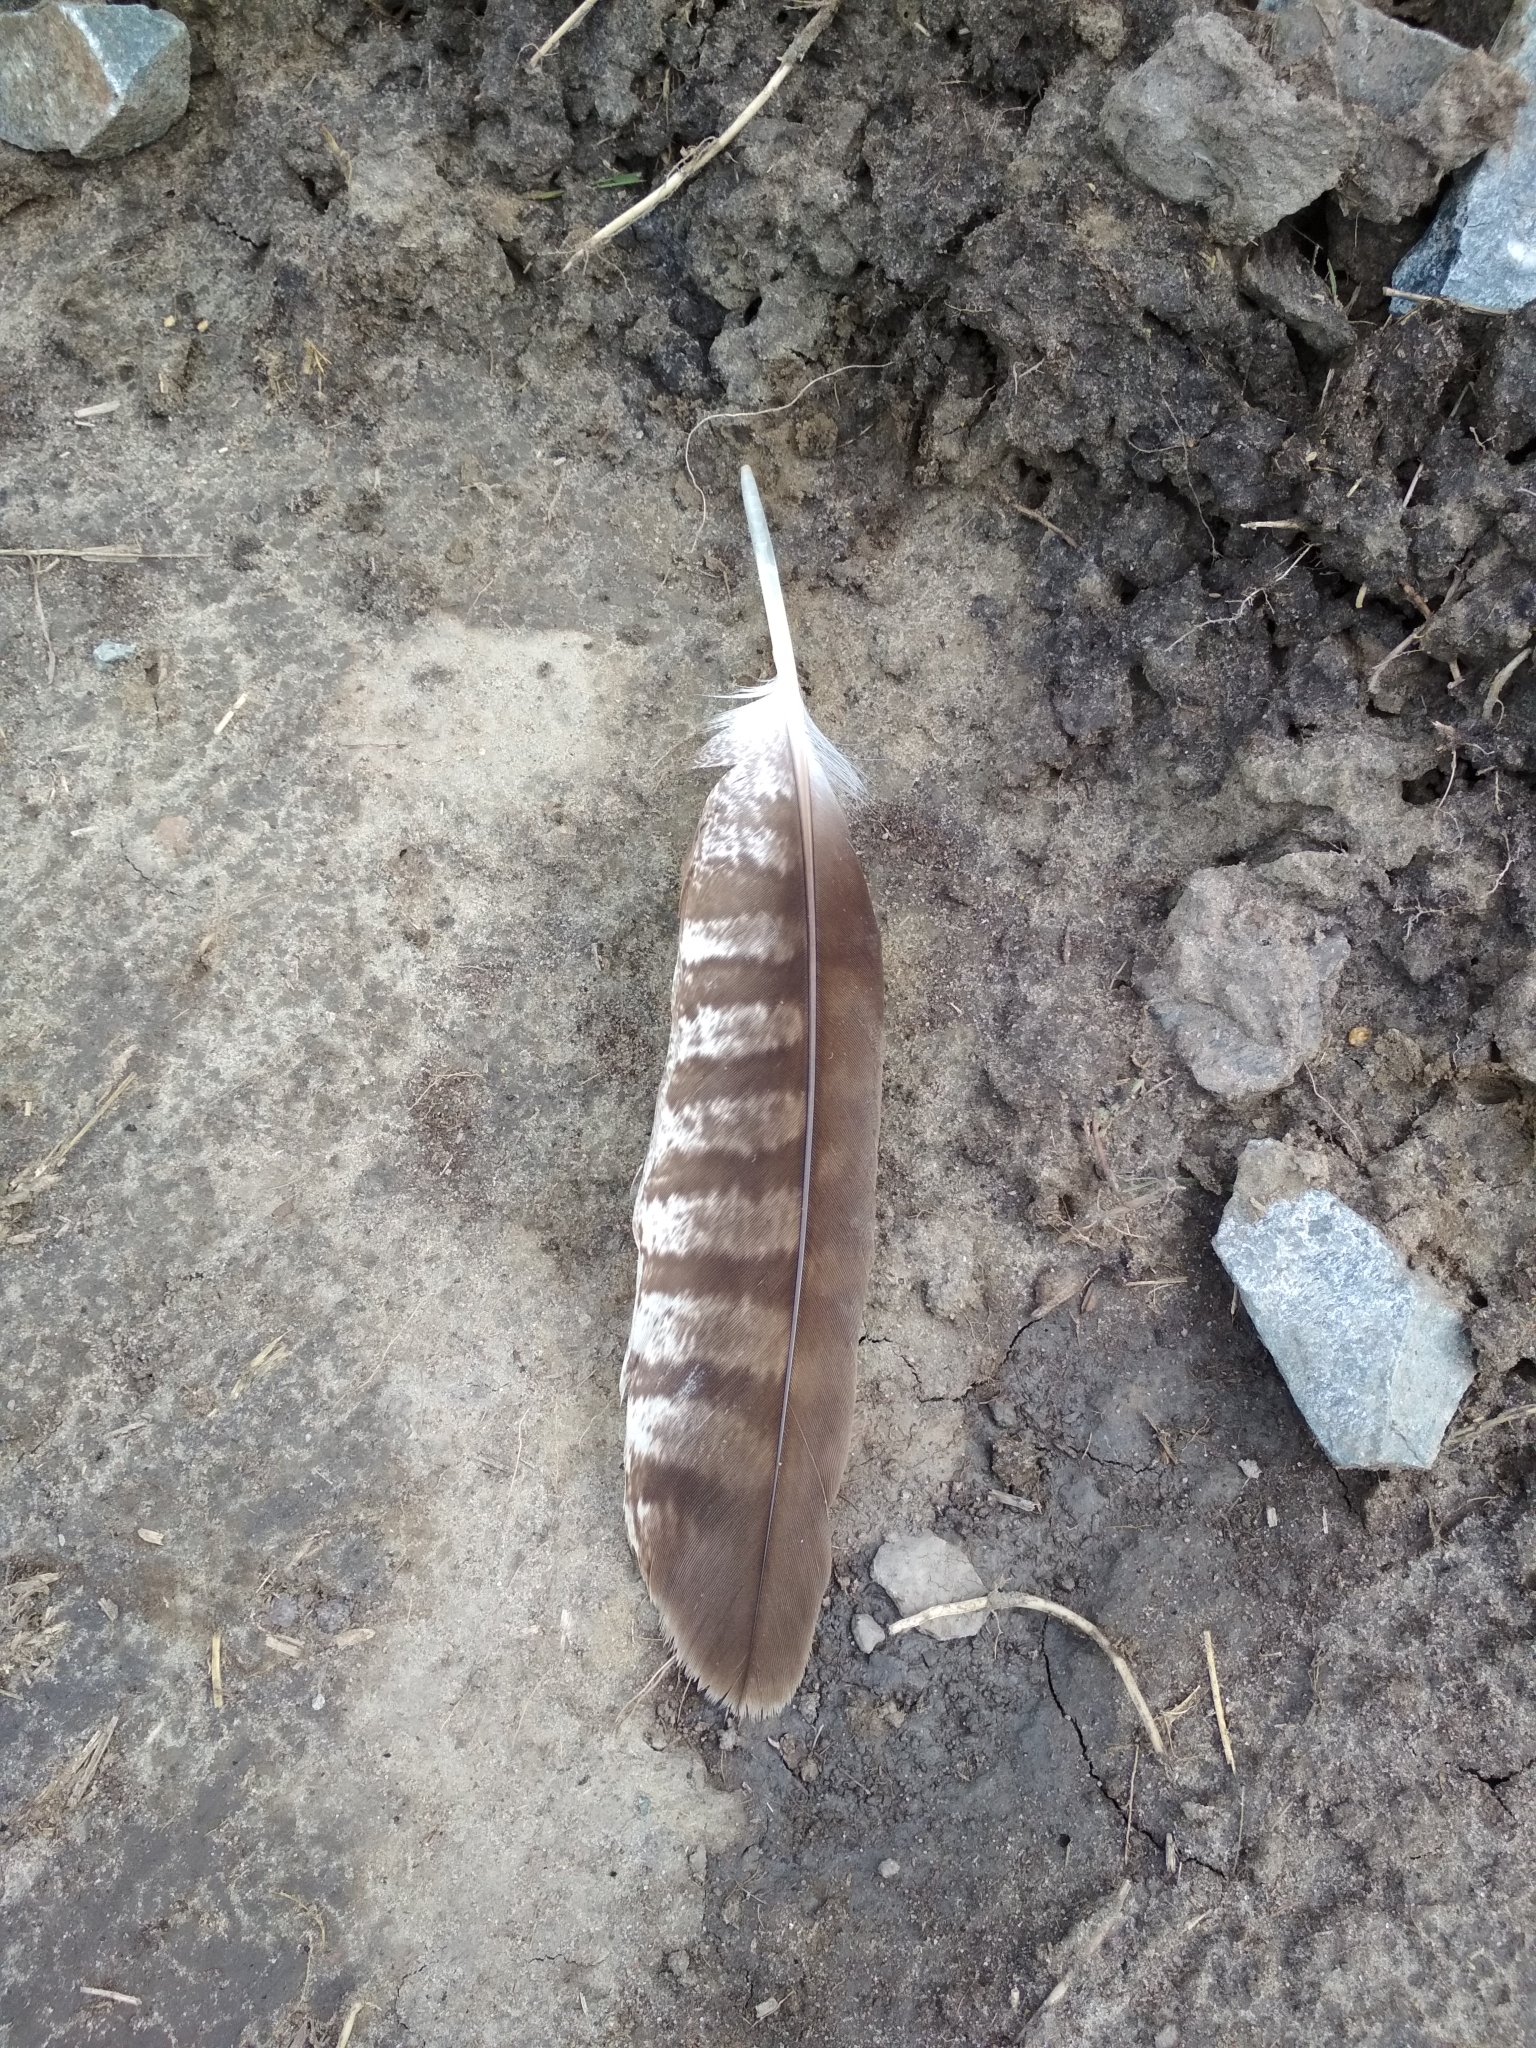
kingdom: Animalia
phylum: Chordata
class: Aves
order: Accipitriformes
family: Accipitridae
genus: Milvus
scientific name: Milvus migrans
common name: Black kite
